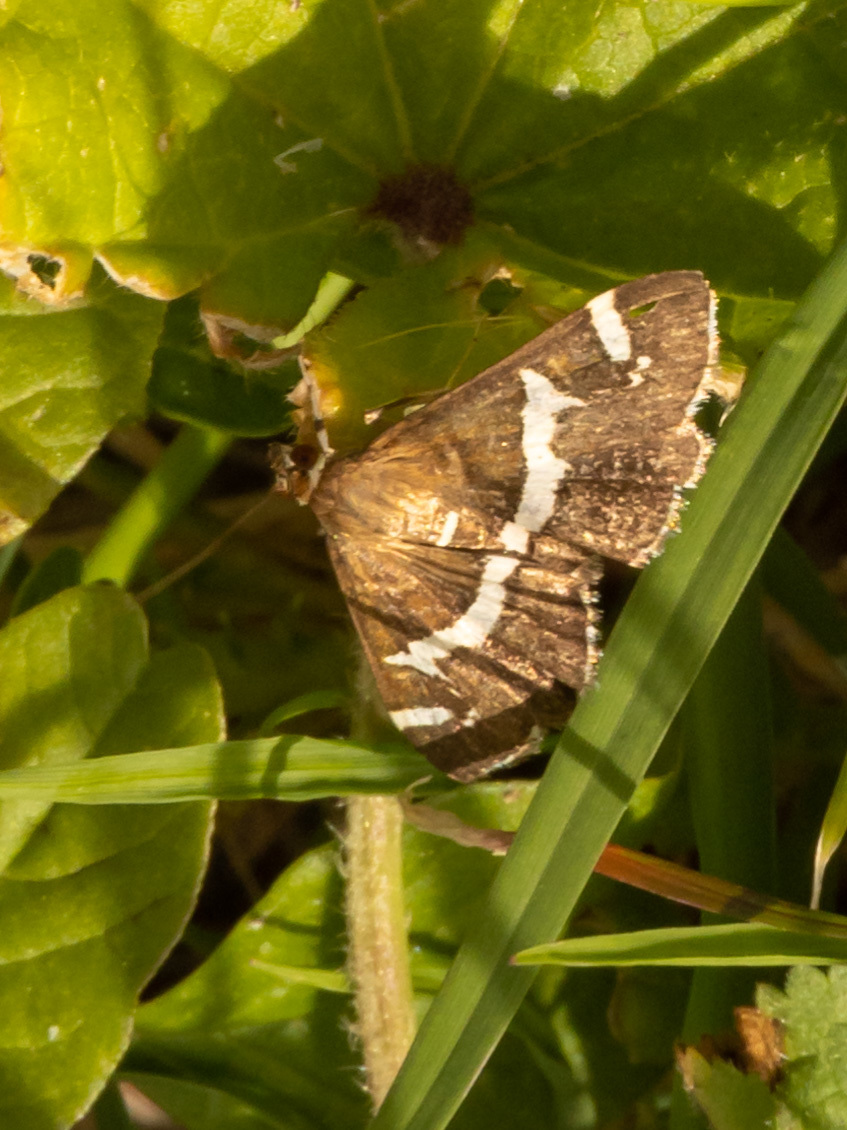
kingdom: Animalia
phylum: Arthropoda
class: Insecta
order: Lepidoptera
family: Crambidae
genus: Spoladea
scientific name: Spoladea recurvalis
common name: Beet webworm moth
